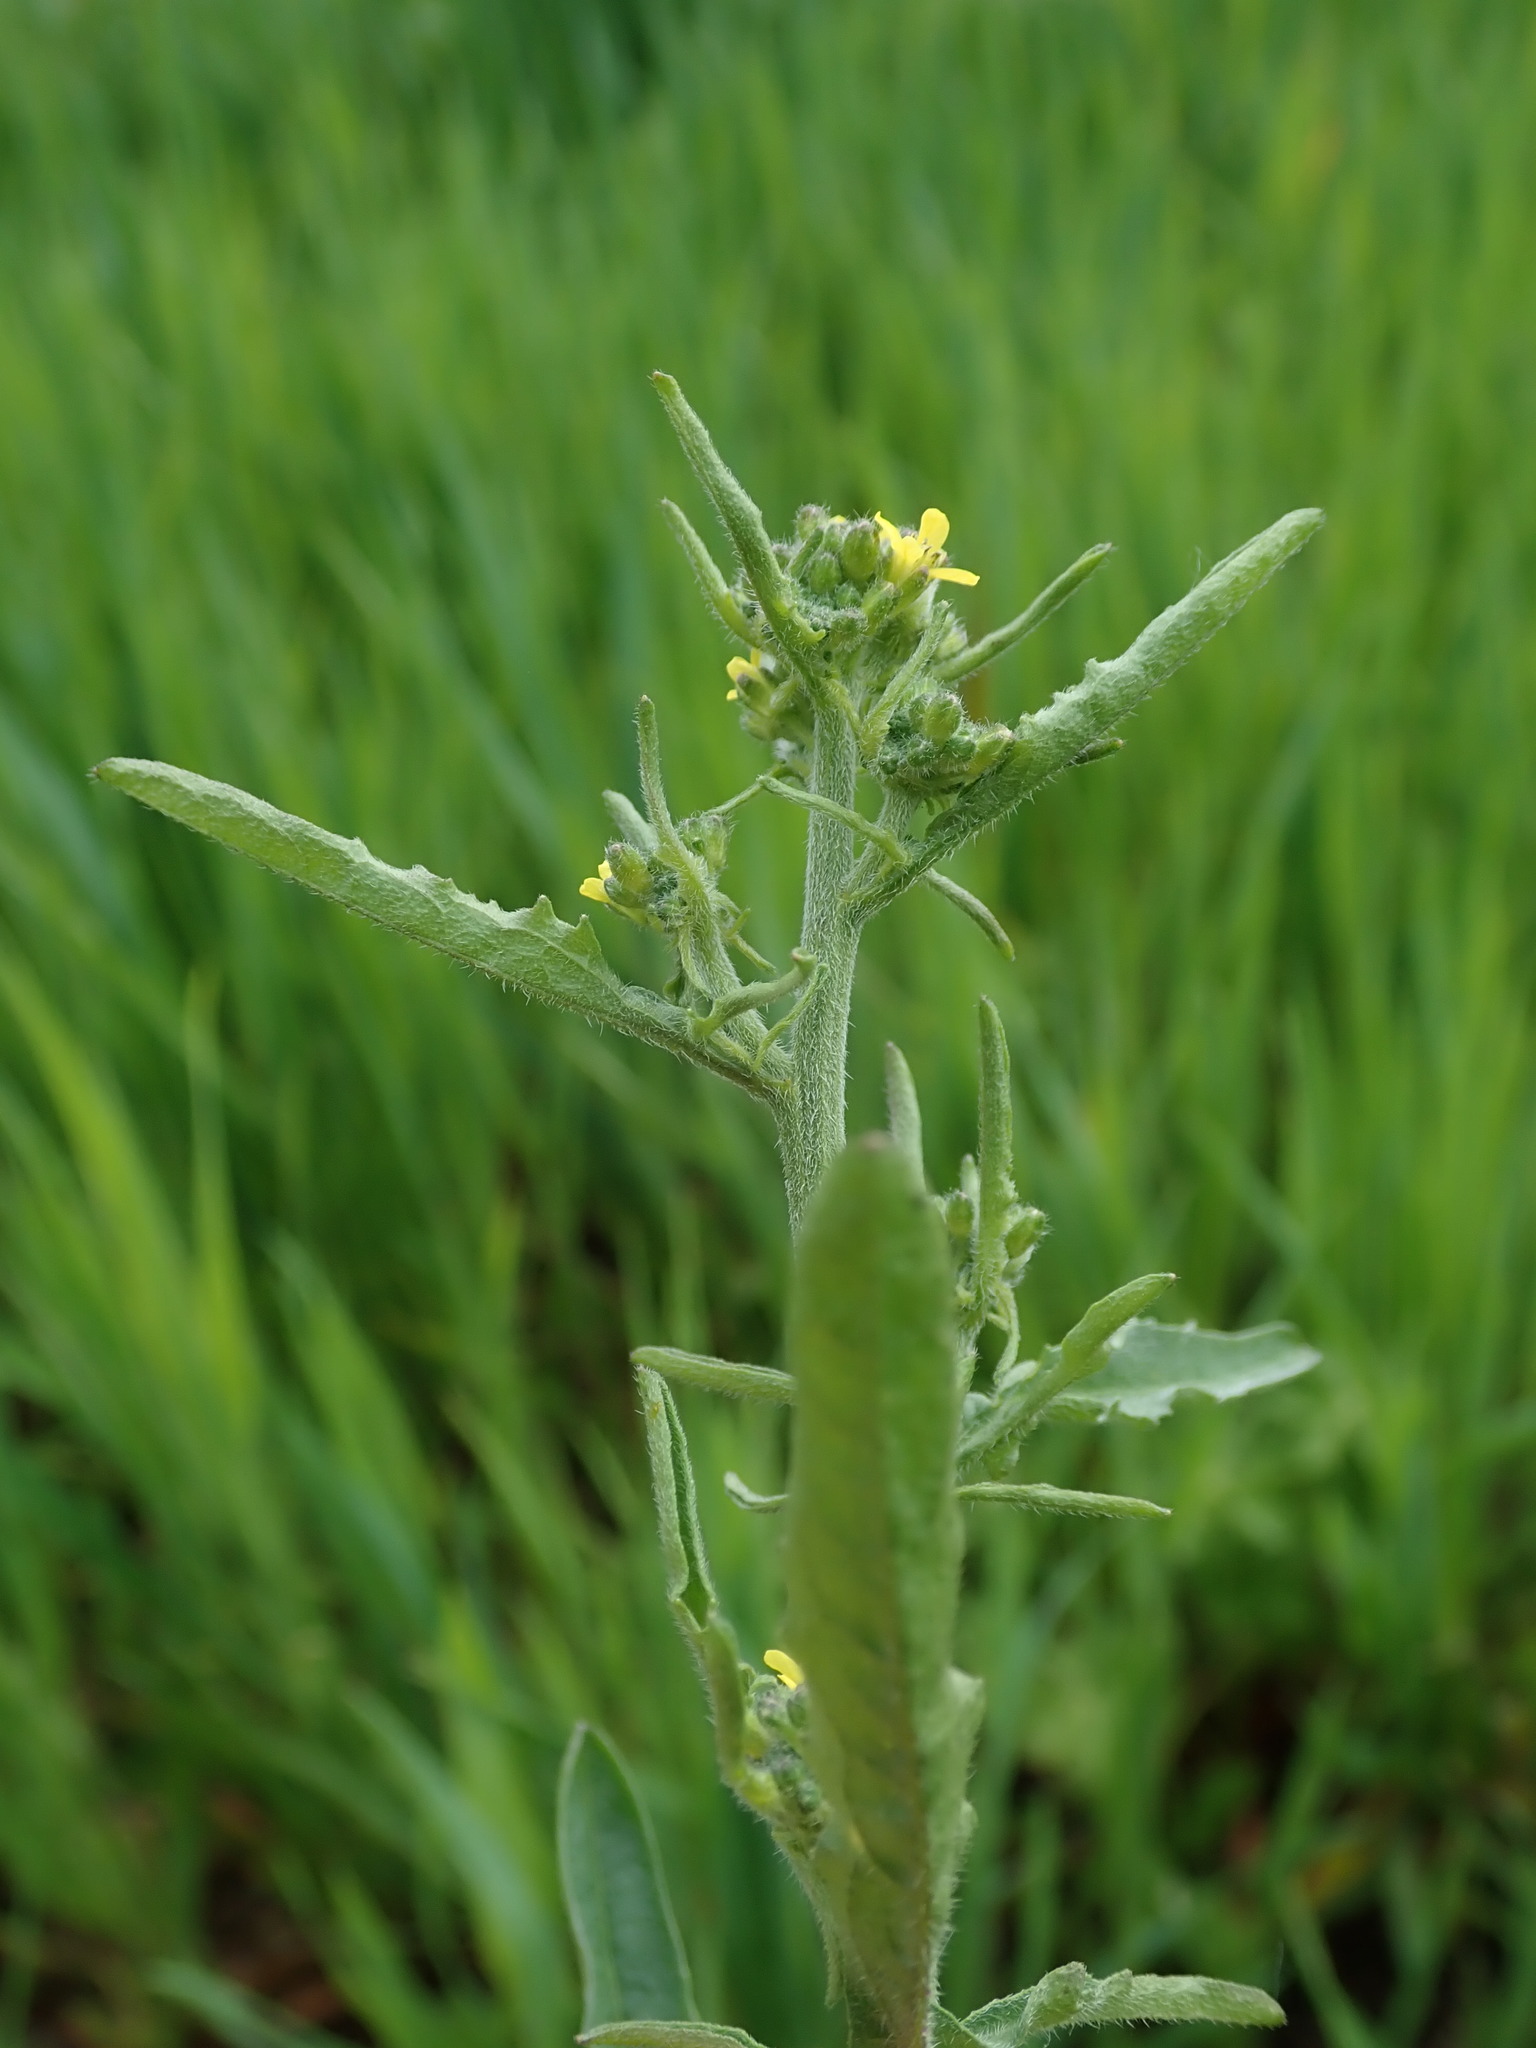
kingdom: Plantae
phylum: Tracheophyta
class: Magnoliopsida
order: Brassicales
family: Brassicaceae
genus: Sisymbrium
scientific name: Sisymbrium officinale
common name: Hedge mustard
